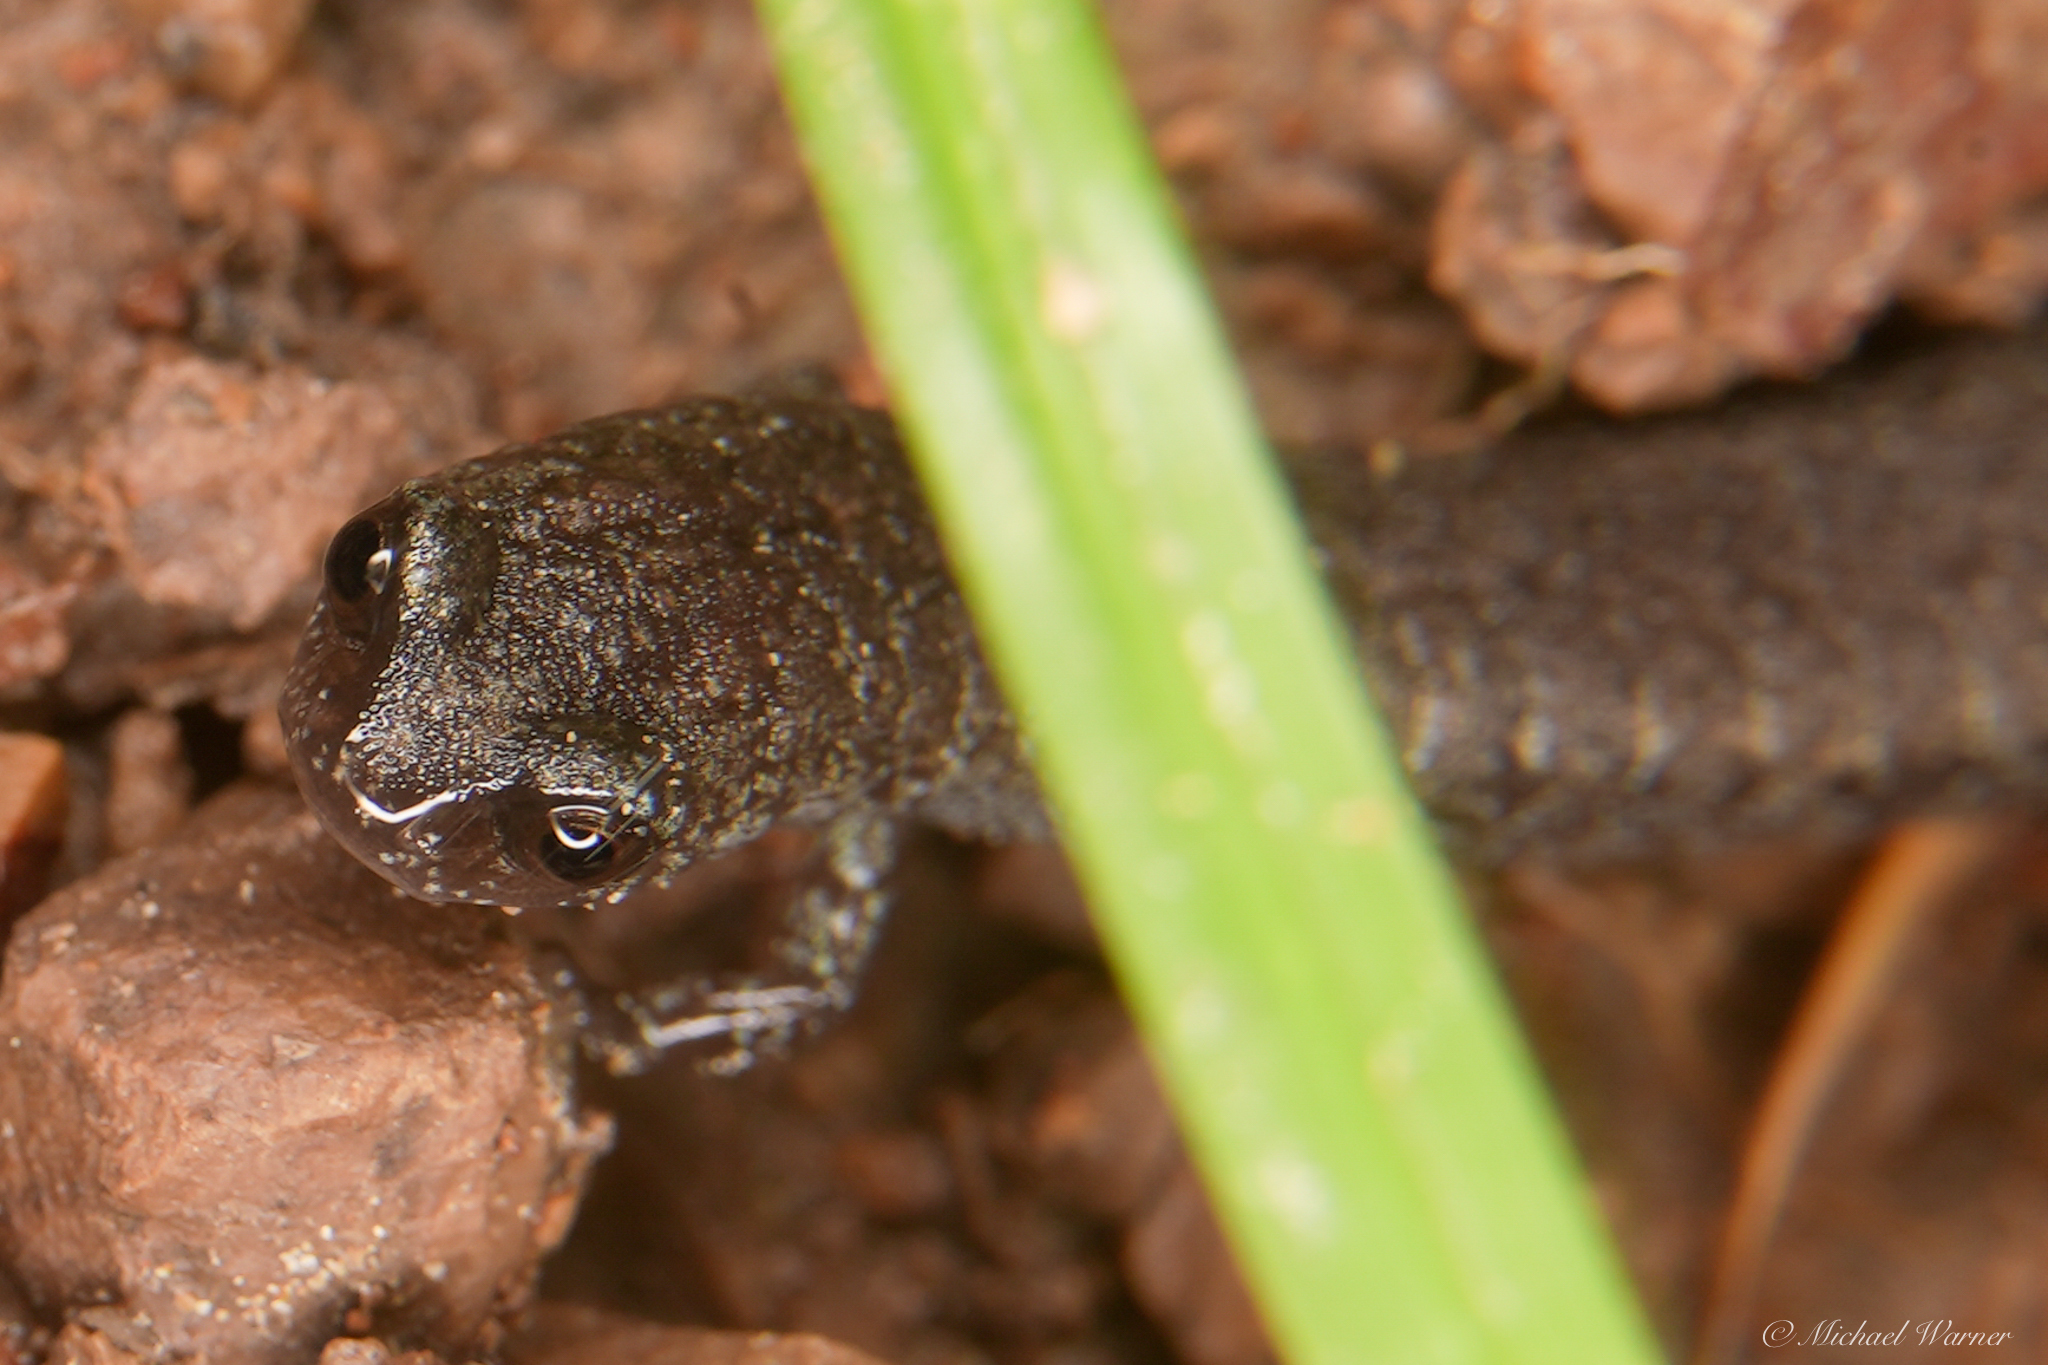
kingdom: Animalia
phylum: Chordata
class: Amphibia
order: Caudata
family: Plethodontidae
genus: Batrachoseps
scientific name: Batrachoseps attenuatus
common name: California slender salamander
